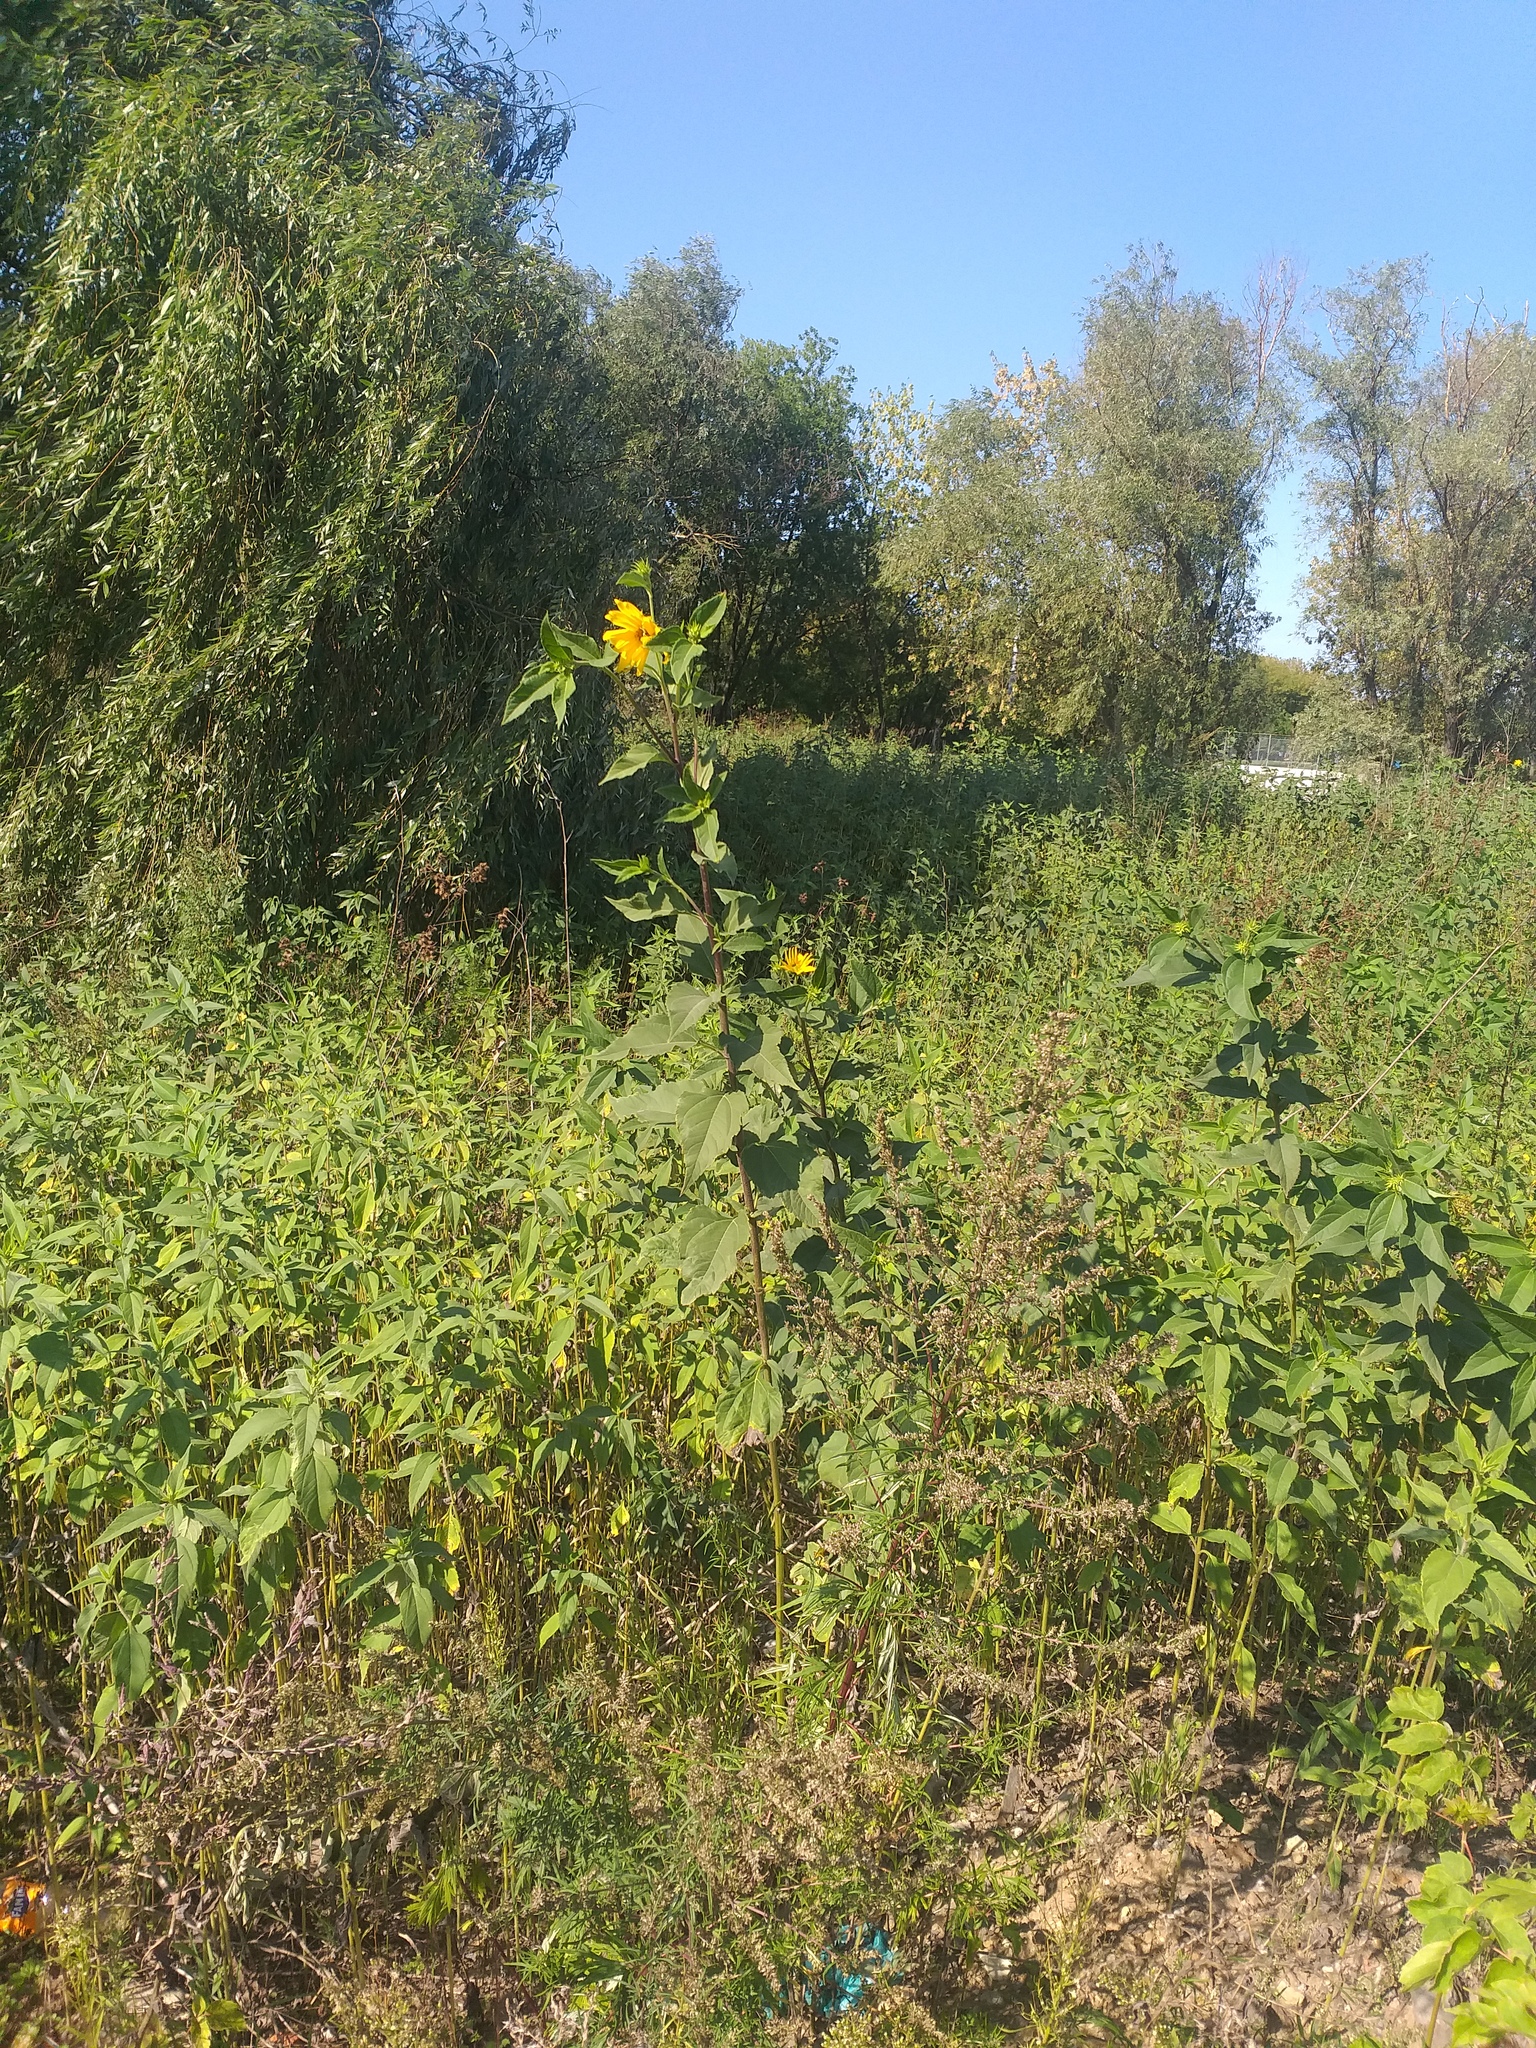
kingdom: Plantae
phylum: Tracheophyta
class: Magnoliopsida
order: Asterales
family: Asteraceae
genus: Helianthus
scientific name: Helianthus tuberosus
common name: Jerusalem artichoke
